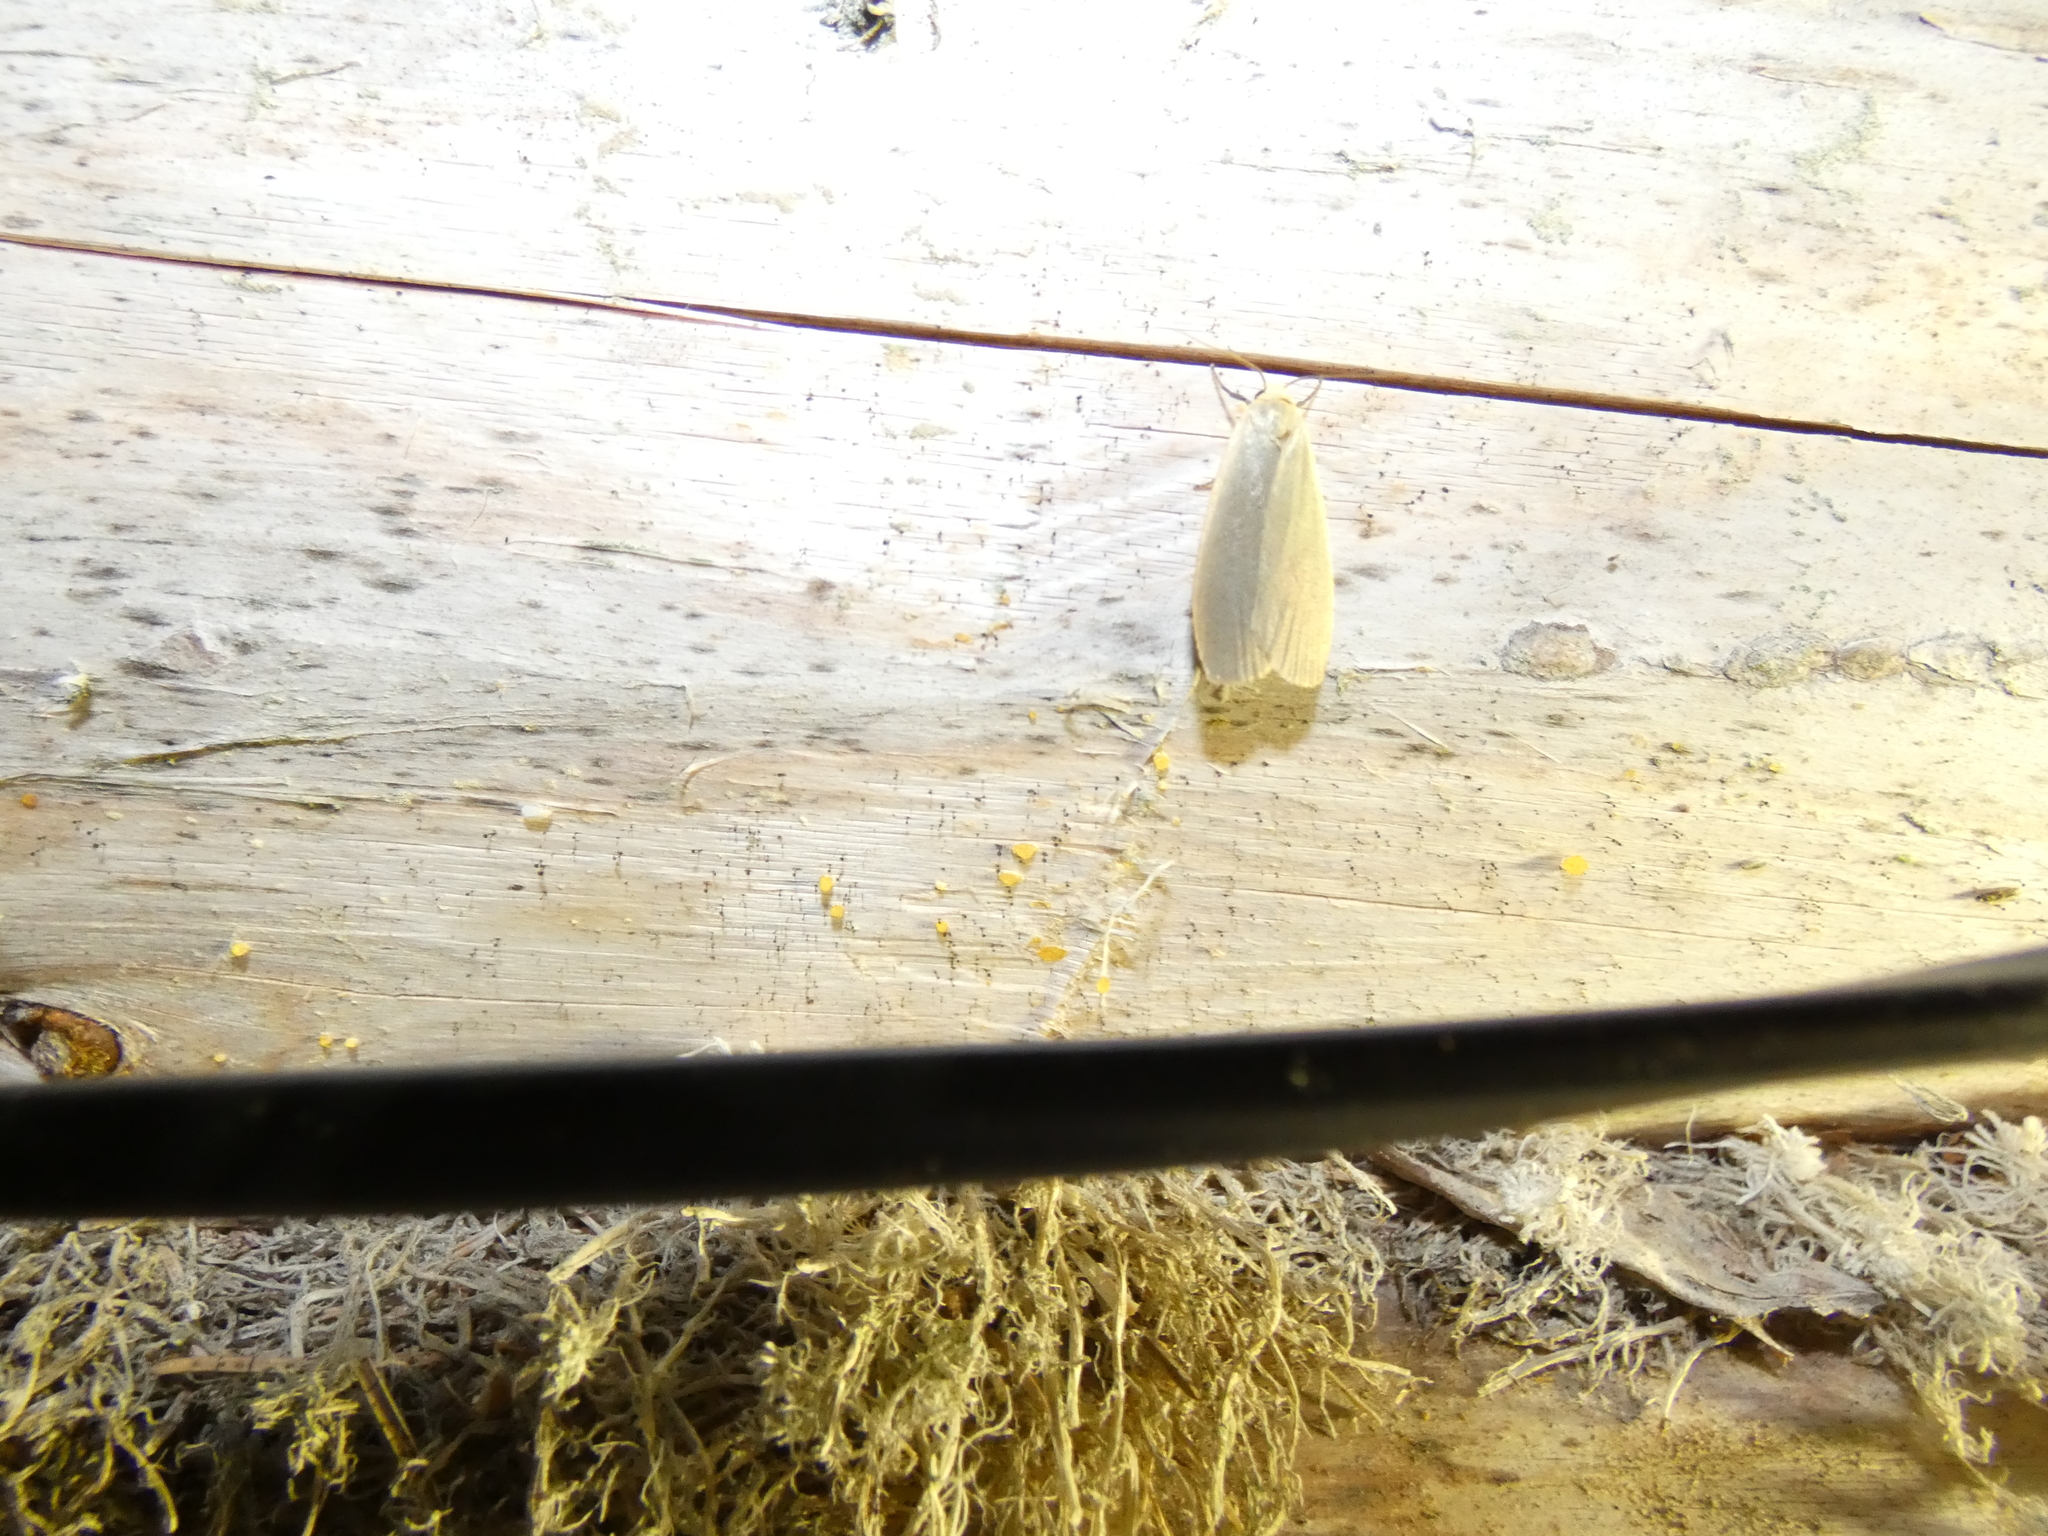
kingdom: Animalia
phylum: Arthropoda
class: Insecta
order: Lepidoptera
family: Erebidae
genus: Collita
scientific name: Collita griseola
